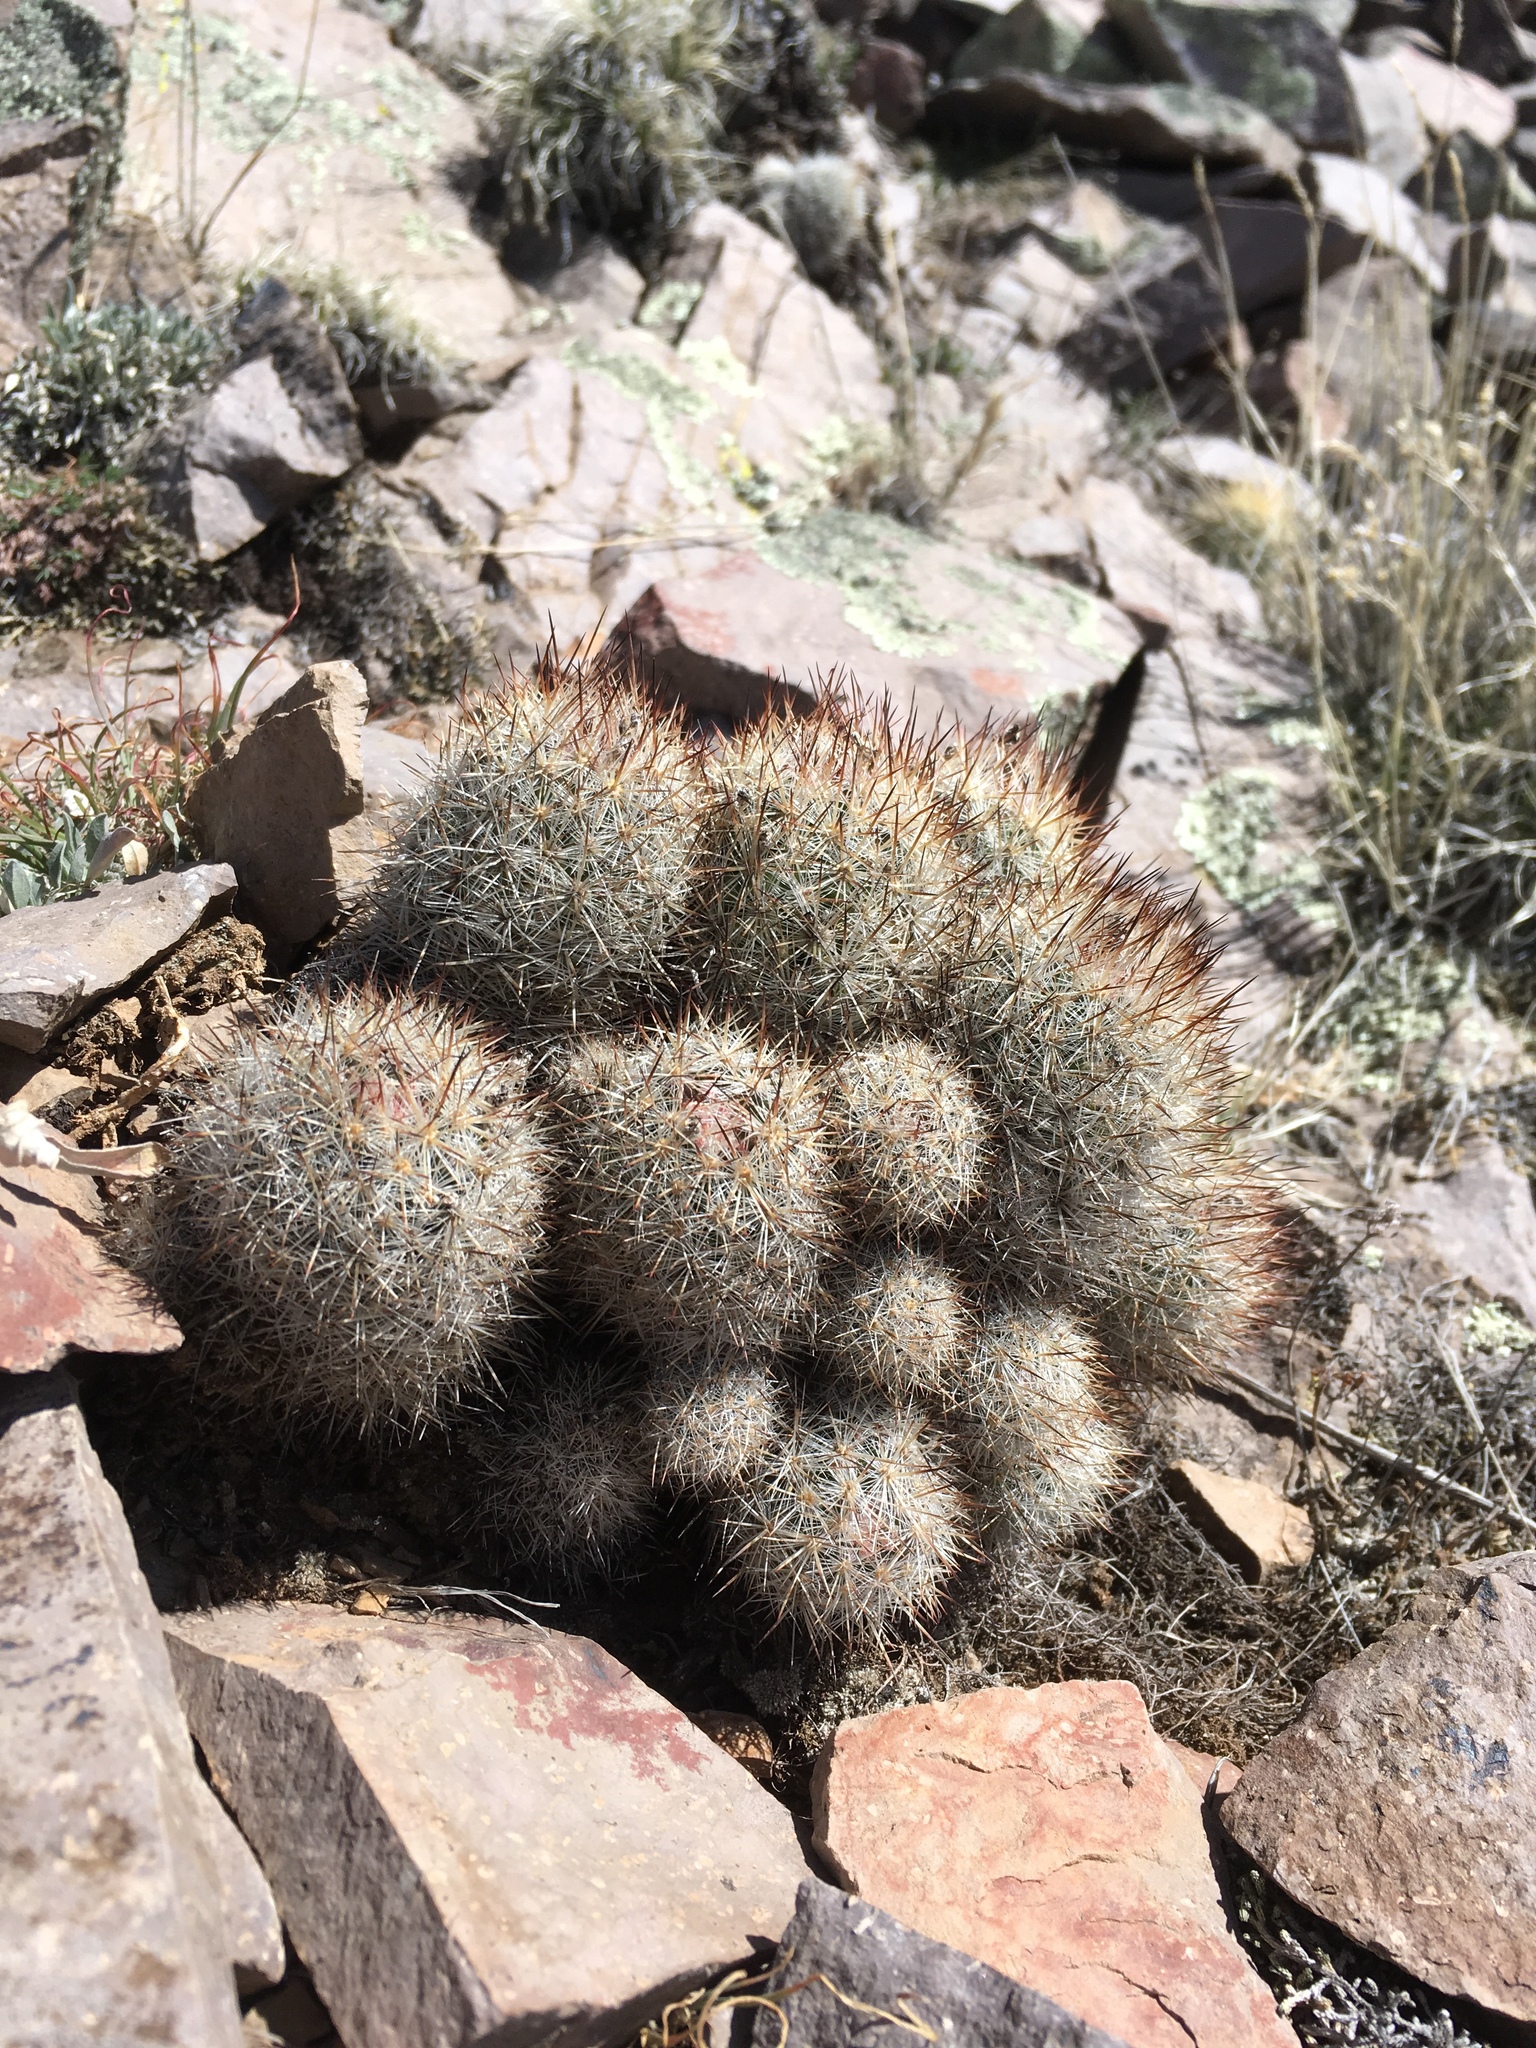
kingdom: Plantae
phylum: Tracheophyta
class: Magnoliopsida
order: Caryophyllales
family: Cactaceae
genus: Pelecyphora
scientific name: Pelecyphora sneedii
